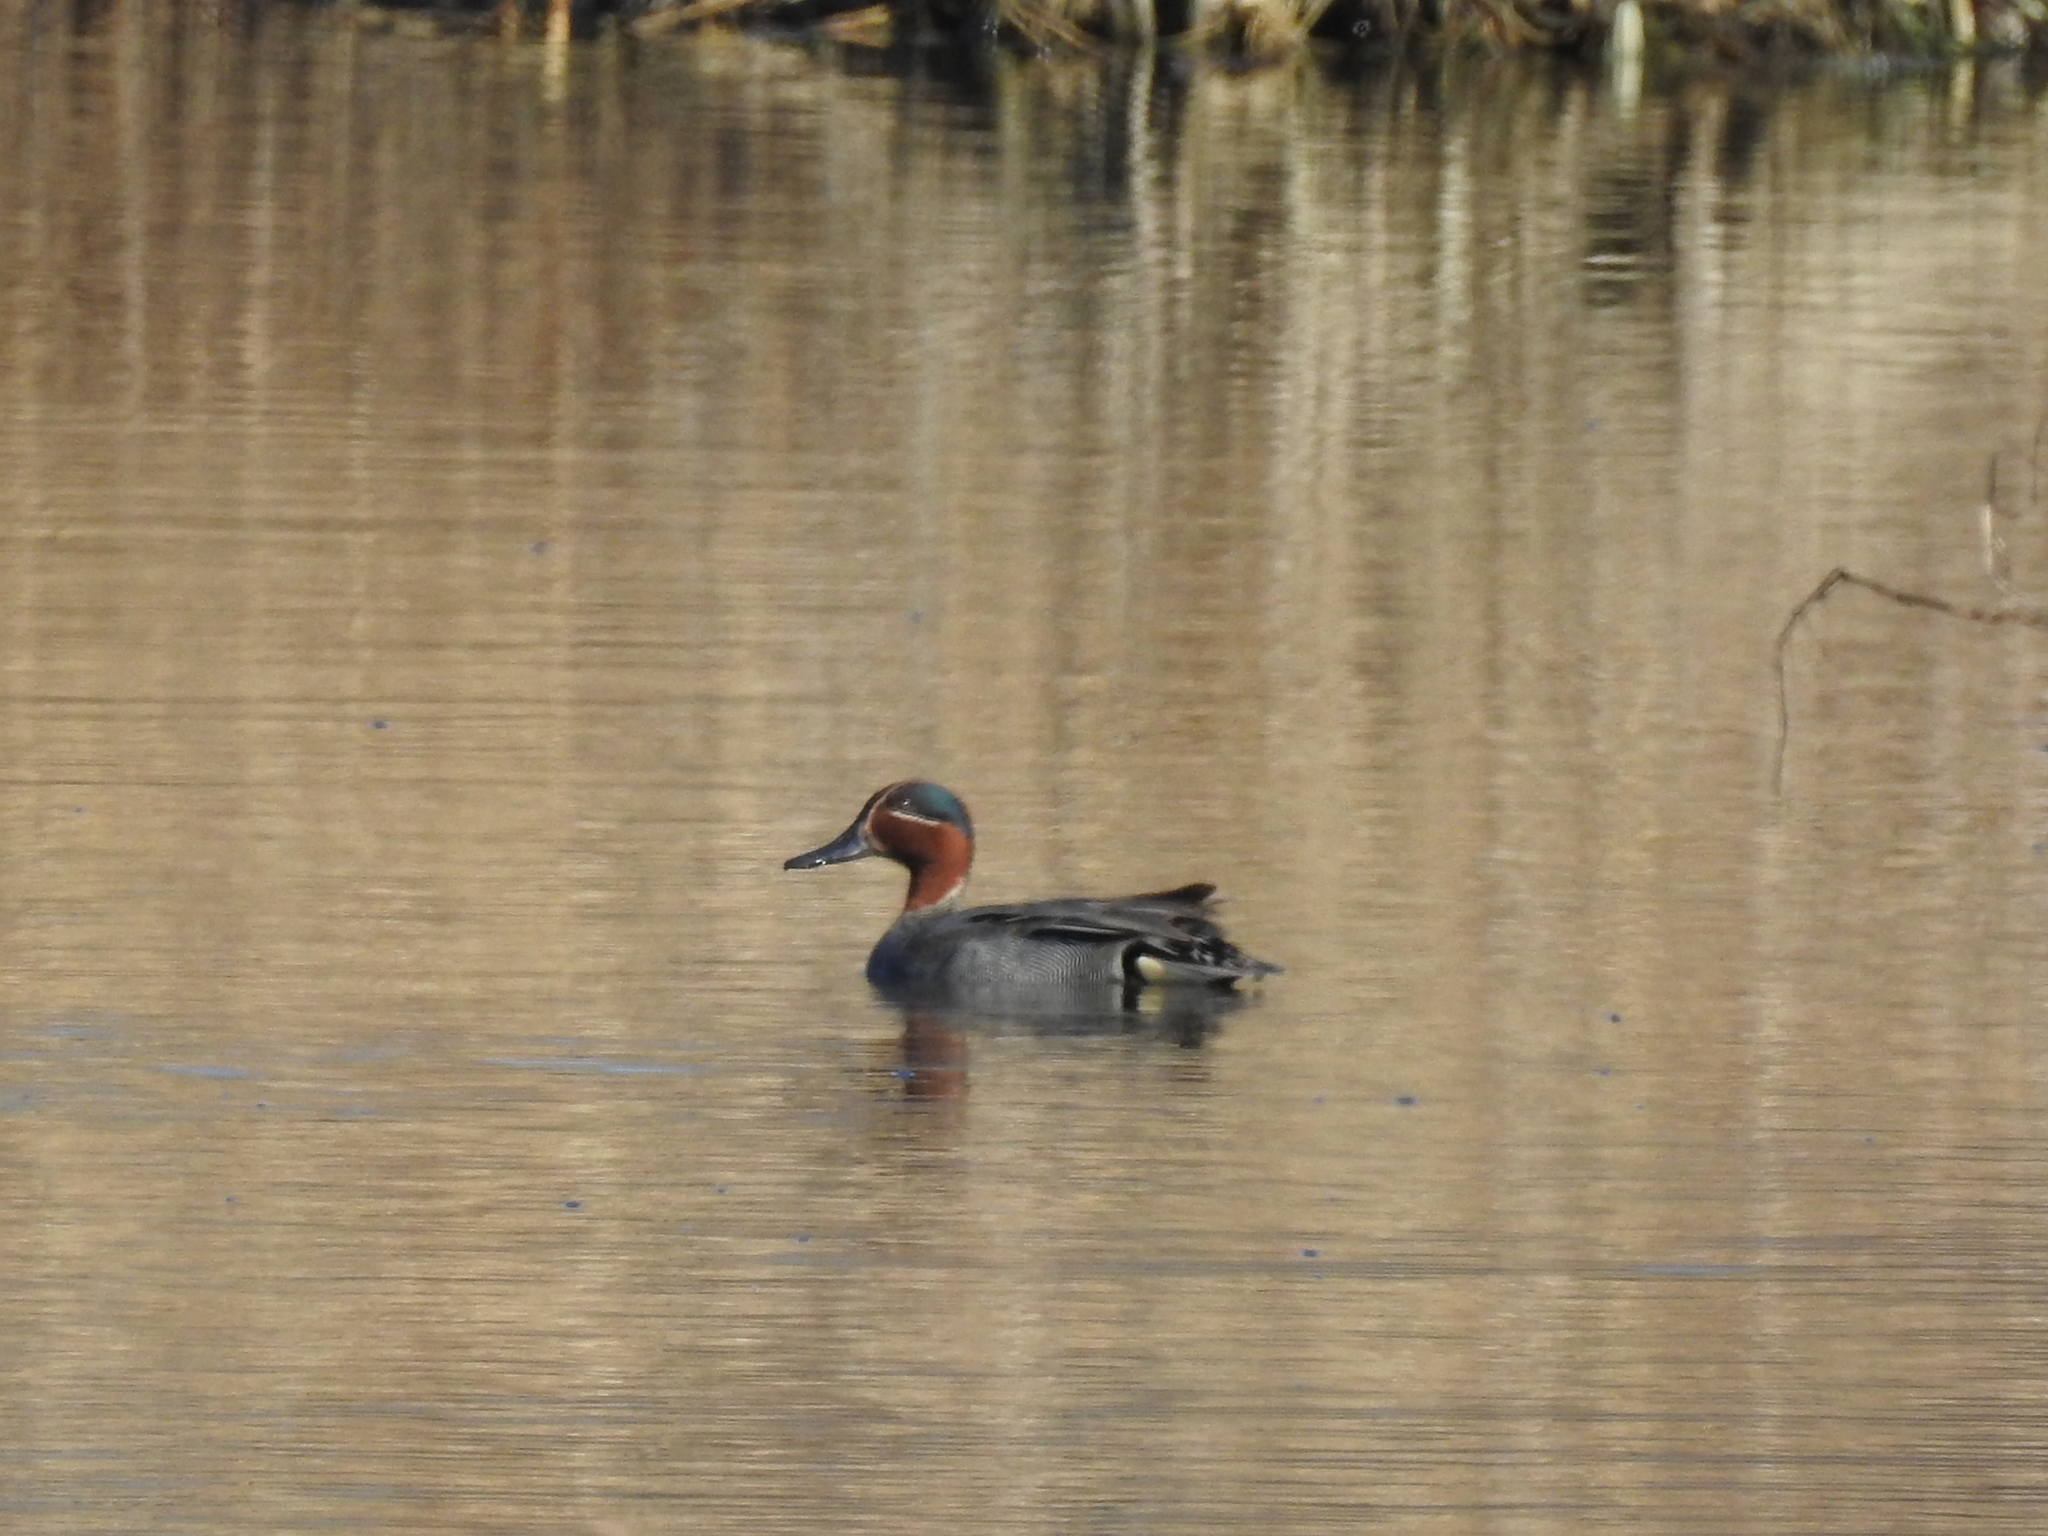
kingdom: Animalia
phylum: Chordata
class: Aves
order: Anseriformes
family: Anatidae
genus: Anas
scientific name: Anas crecca
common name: Eurasian teal
